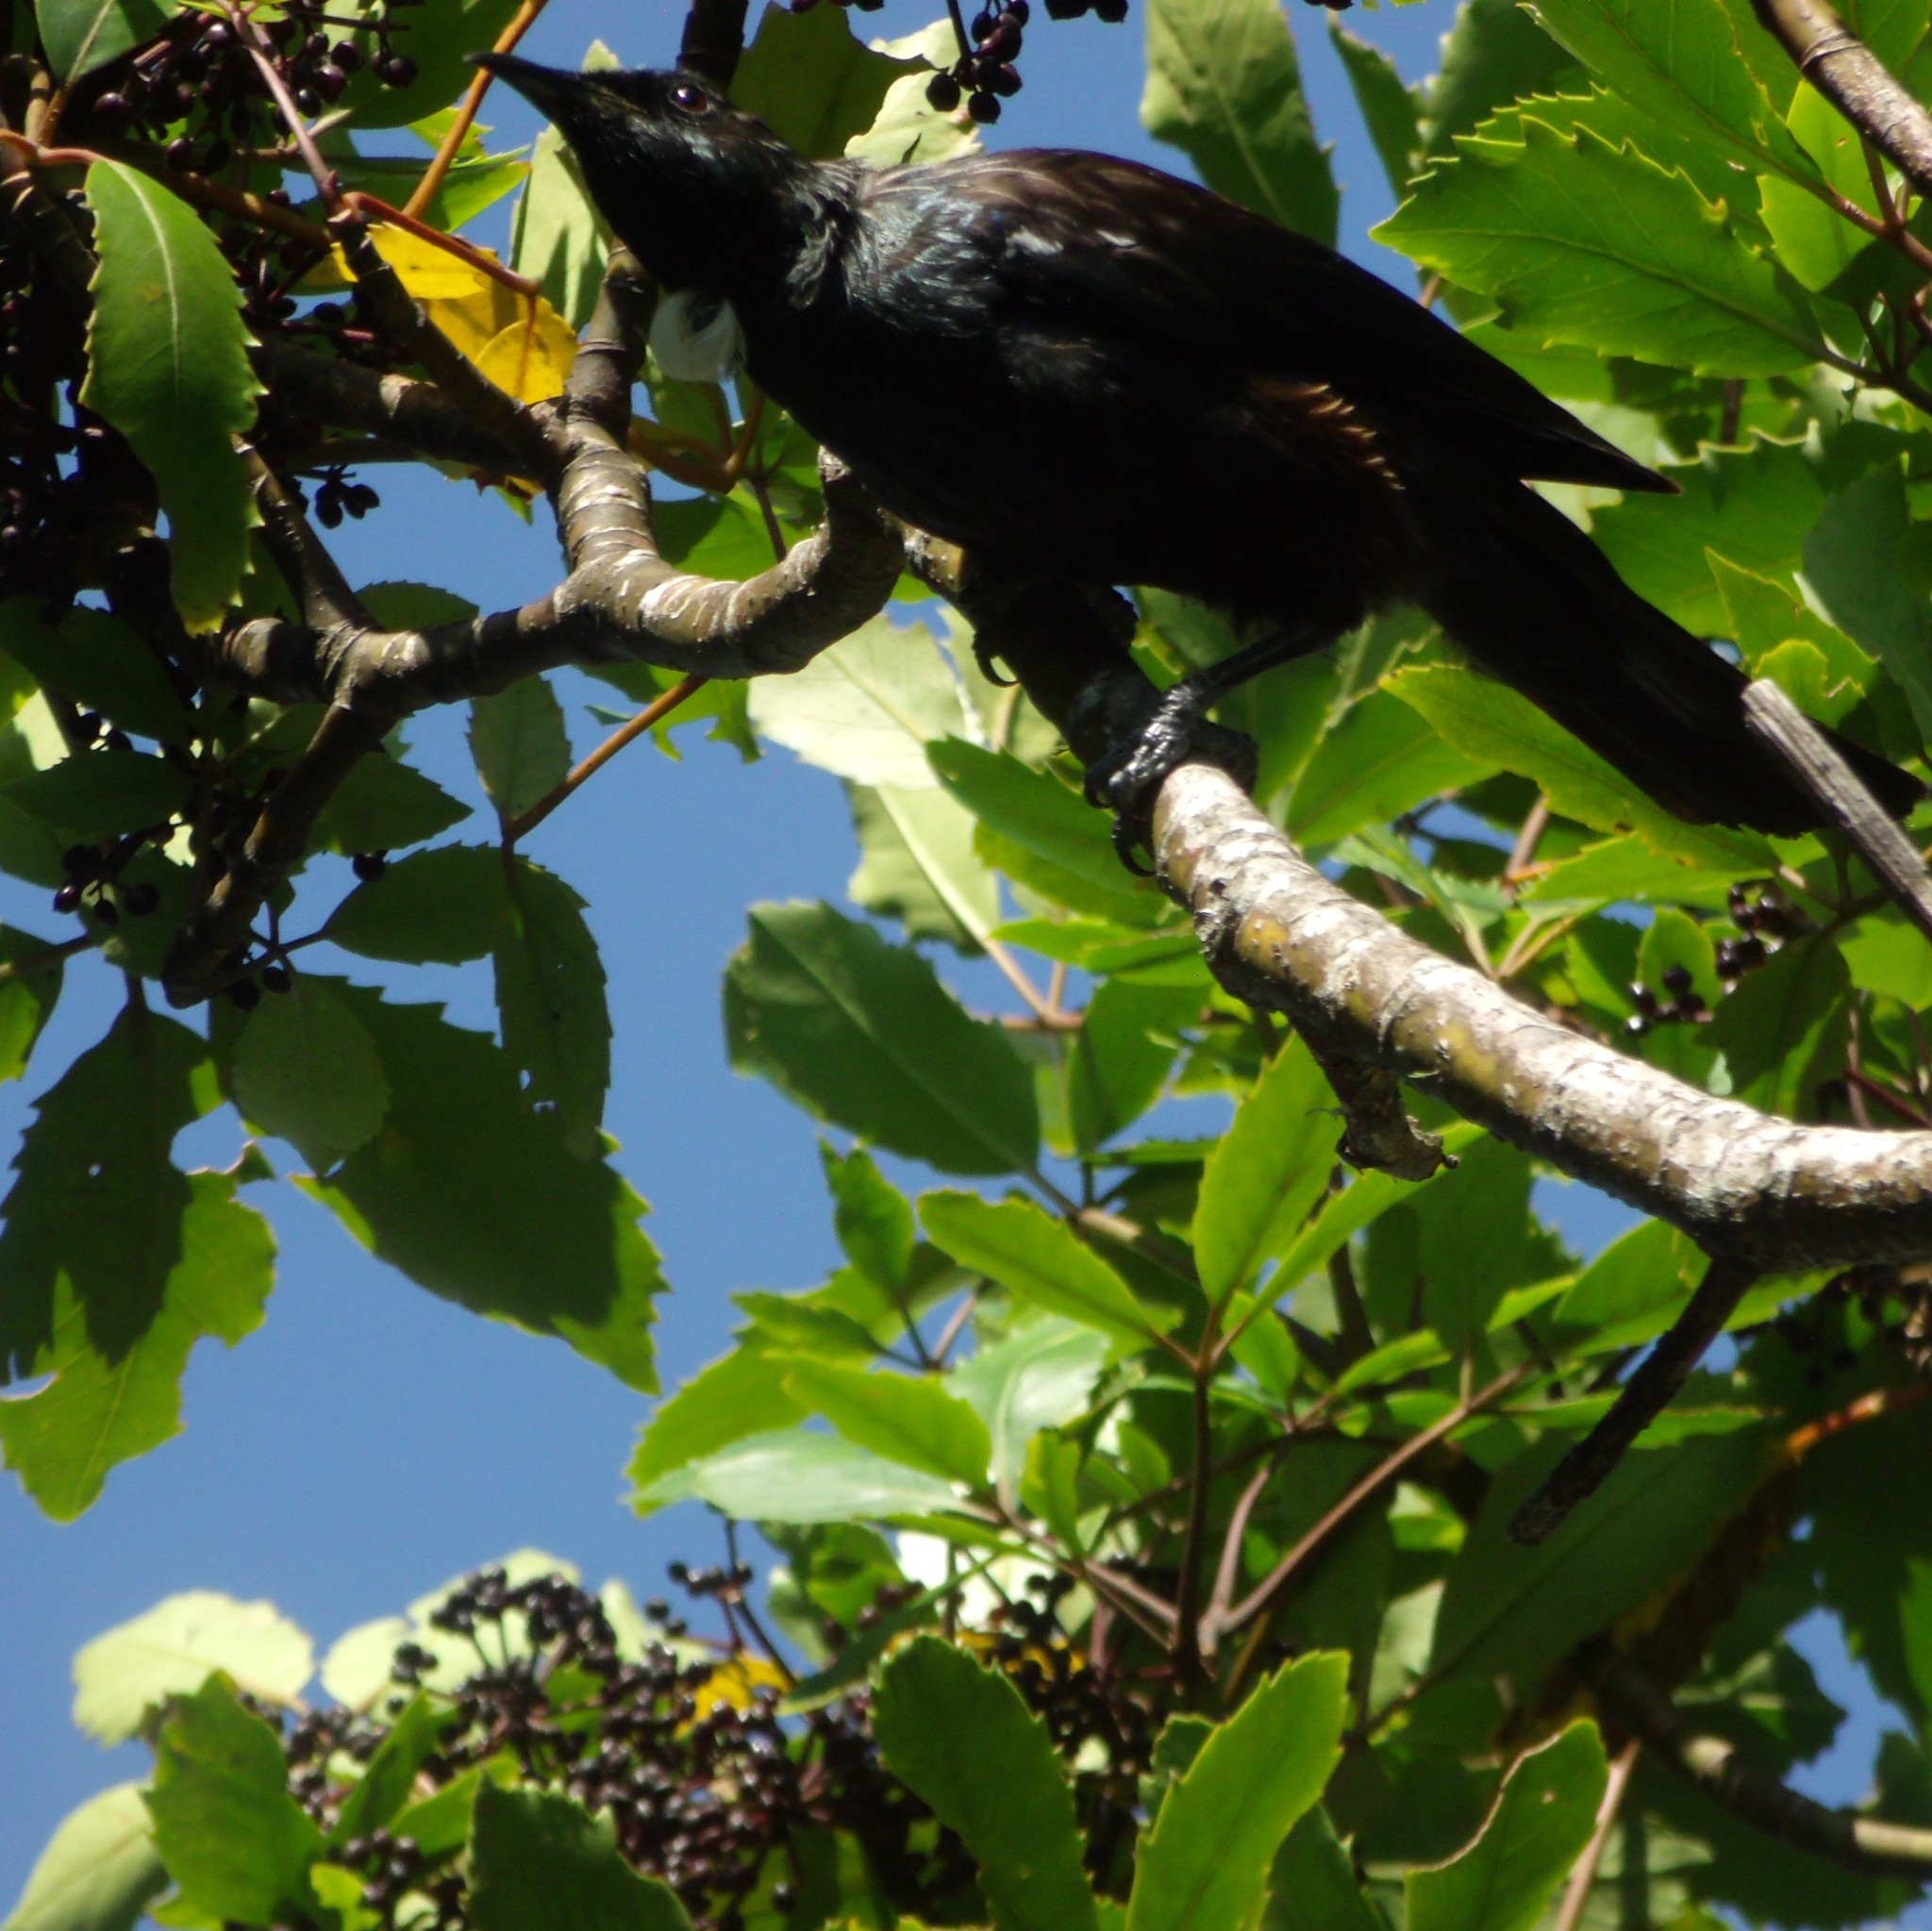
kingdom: Animalia
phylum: Chordata
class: Aves
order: Passeriformes
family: Meliphagidae
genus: Prosthemadera
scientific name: Prosthemadera novaeseelandiae
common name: Tui
